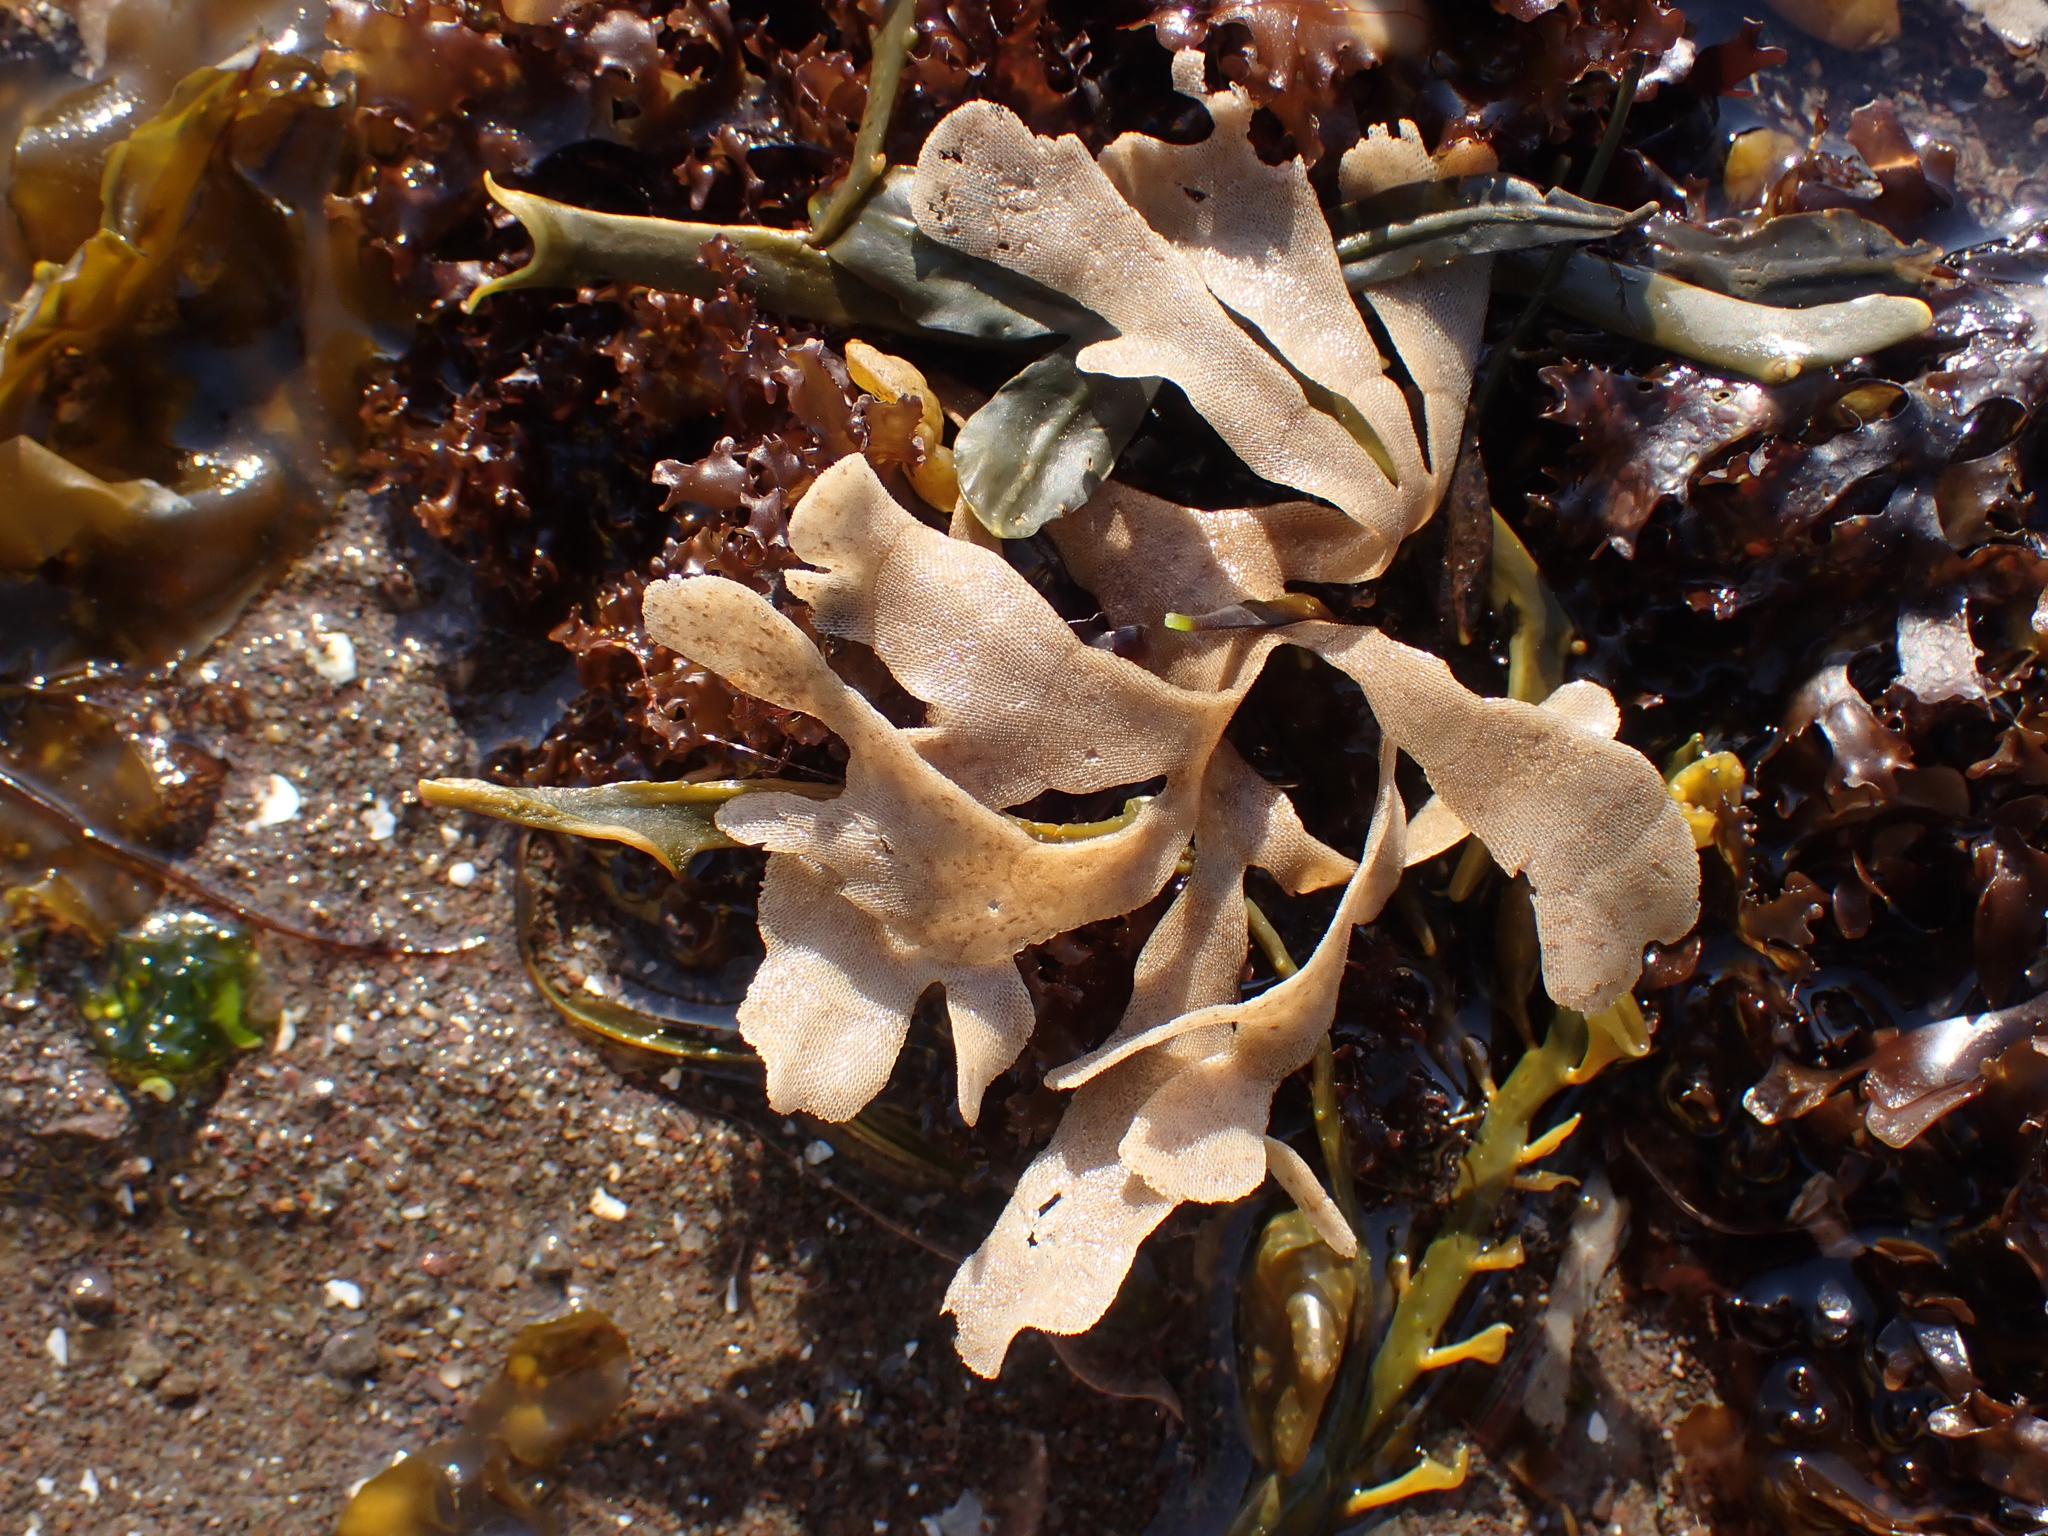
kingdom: Animalia
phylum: Bryozoa
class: Gymnolaemata
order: Cheilostomatida
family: Flustridae
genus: Flustra
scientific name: Flustra foliacea
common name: Hornwrack
